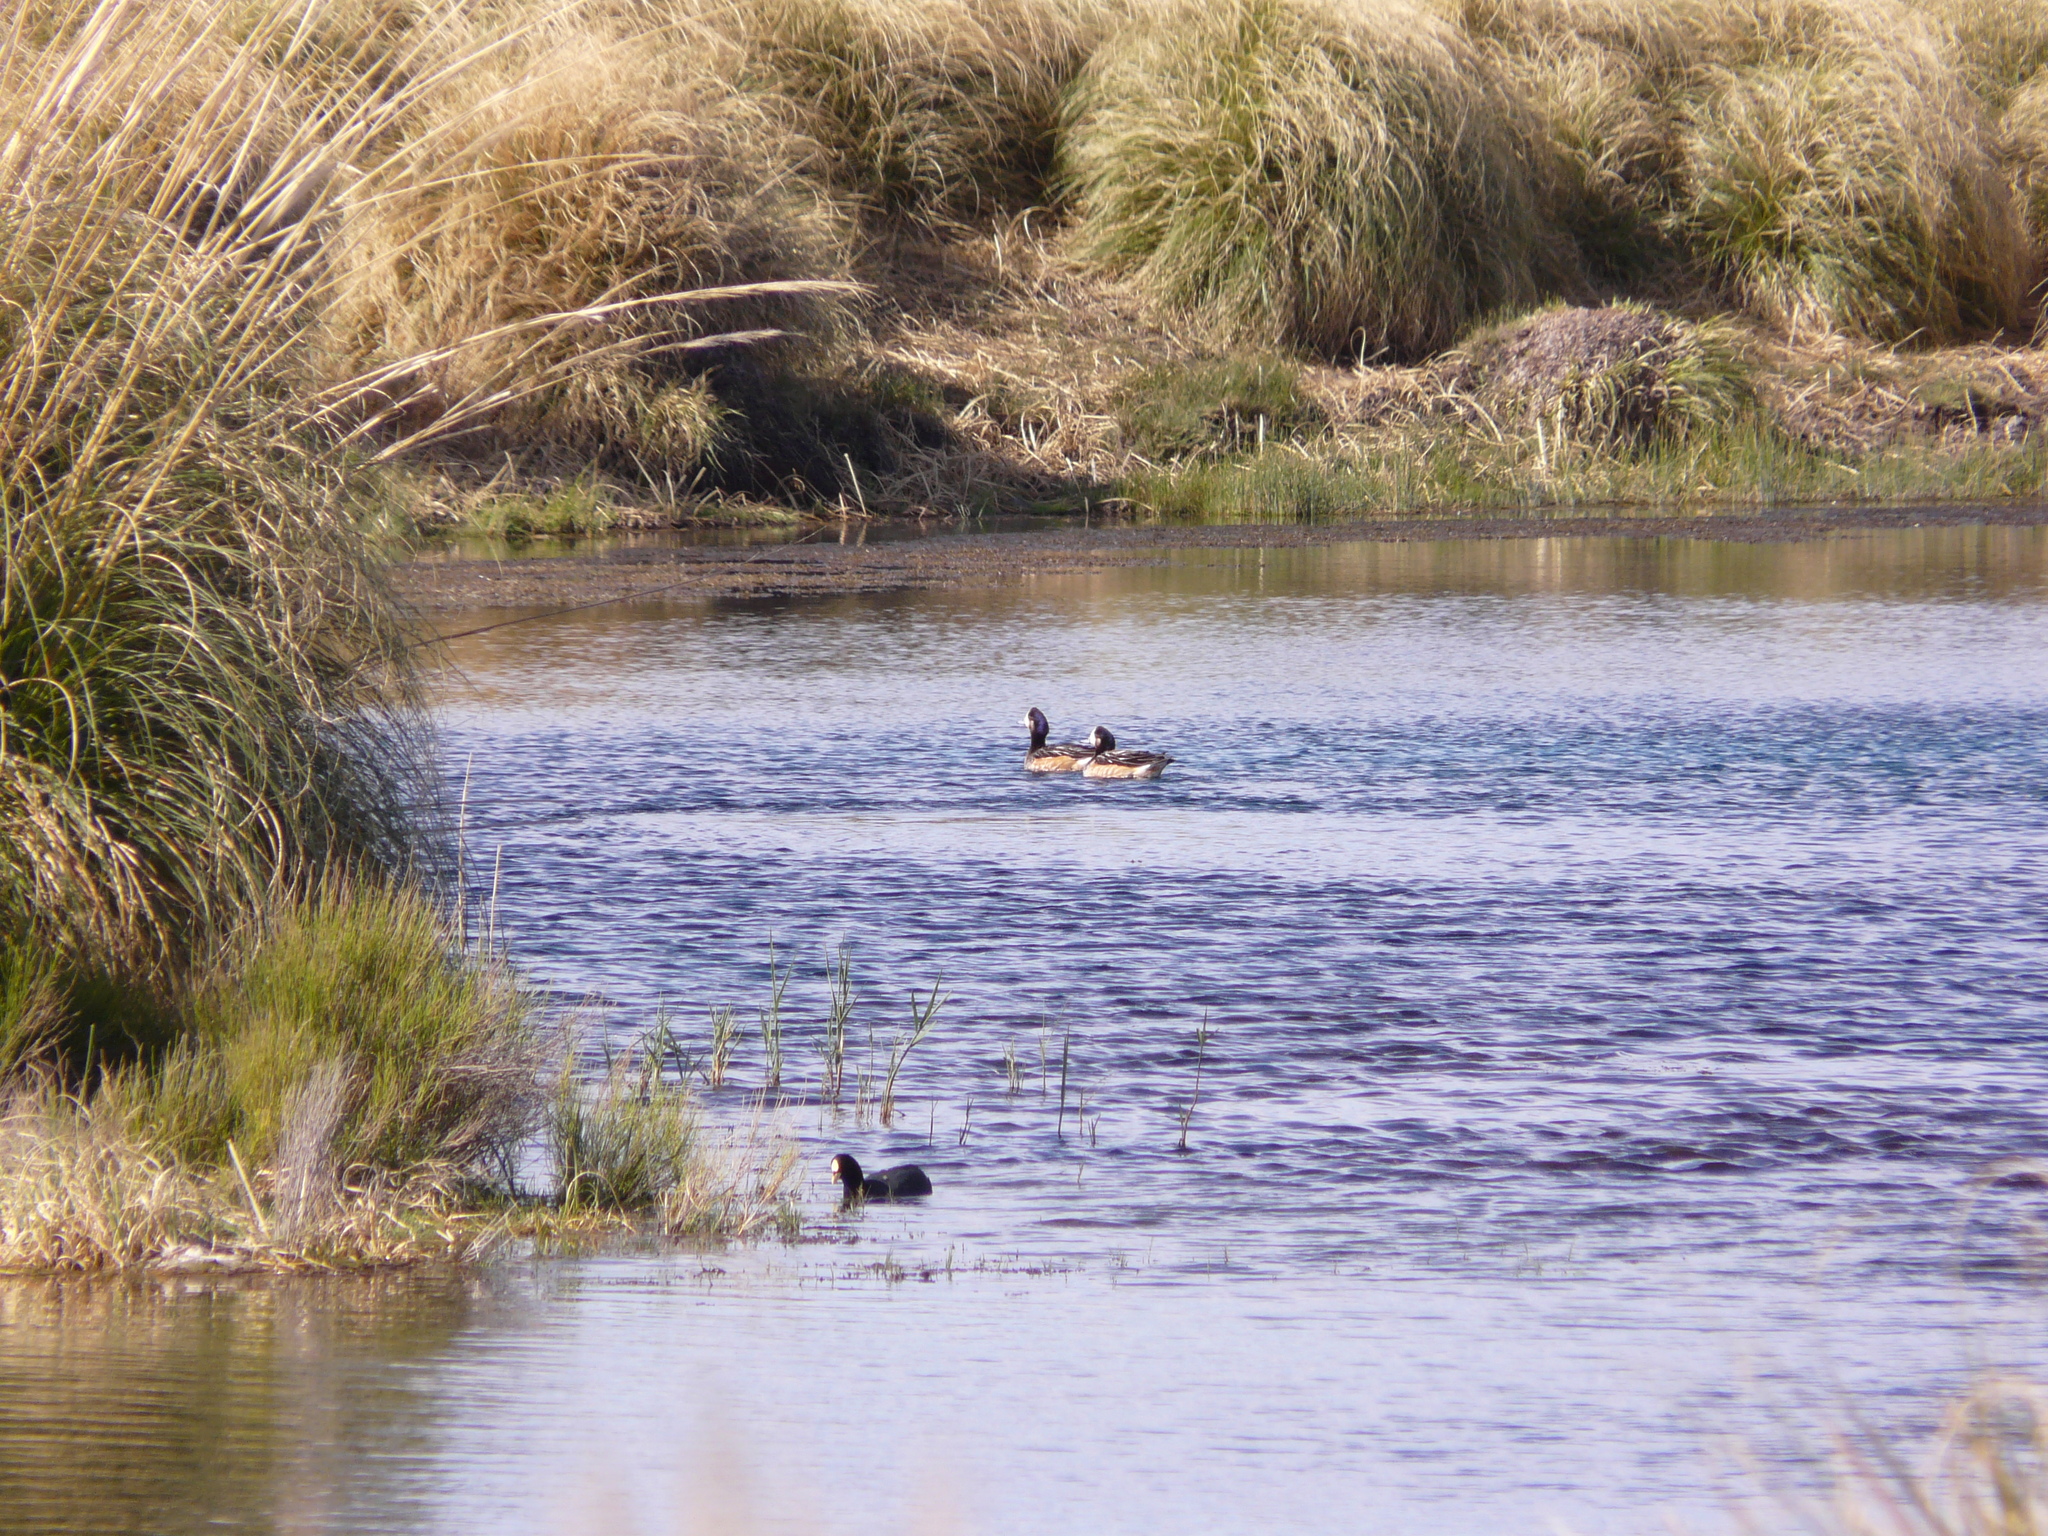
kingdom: Animalia
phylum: Chordata
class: Aves
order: Anseriformes
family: Anatidae
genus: Mareca
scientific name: Mareca sibilatrix
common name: Chiloe wigeon
